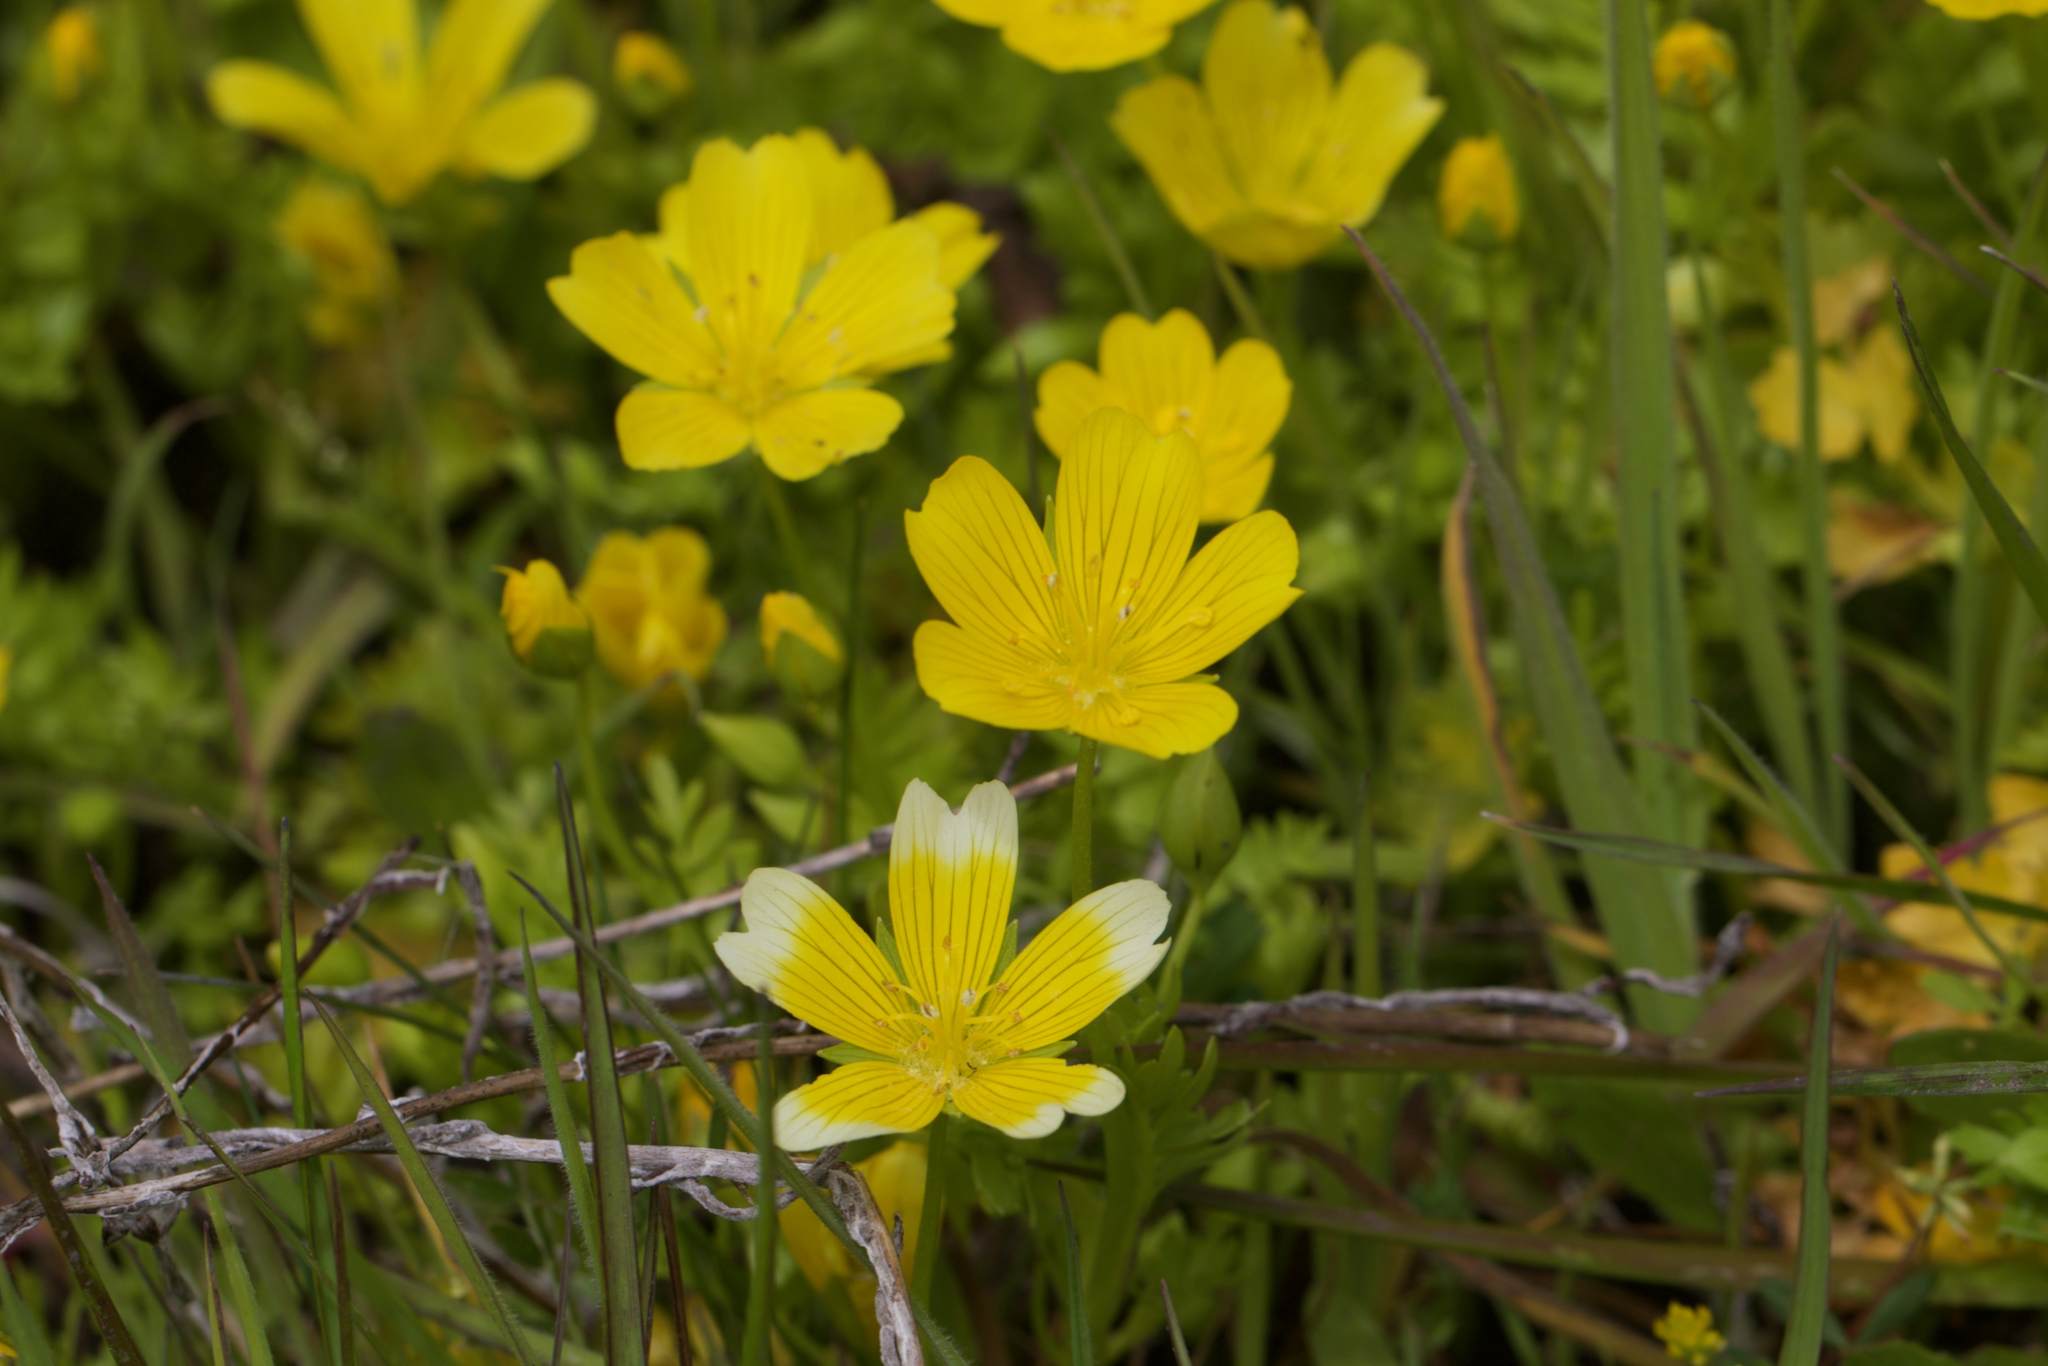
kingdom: Plantae
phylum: Tracheophyta
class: Magnoliopsida
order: Brassicales
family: Limnanthaceae
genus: Limnanthes
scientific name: Limnanthes douglasii
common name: Meadow-foam
